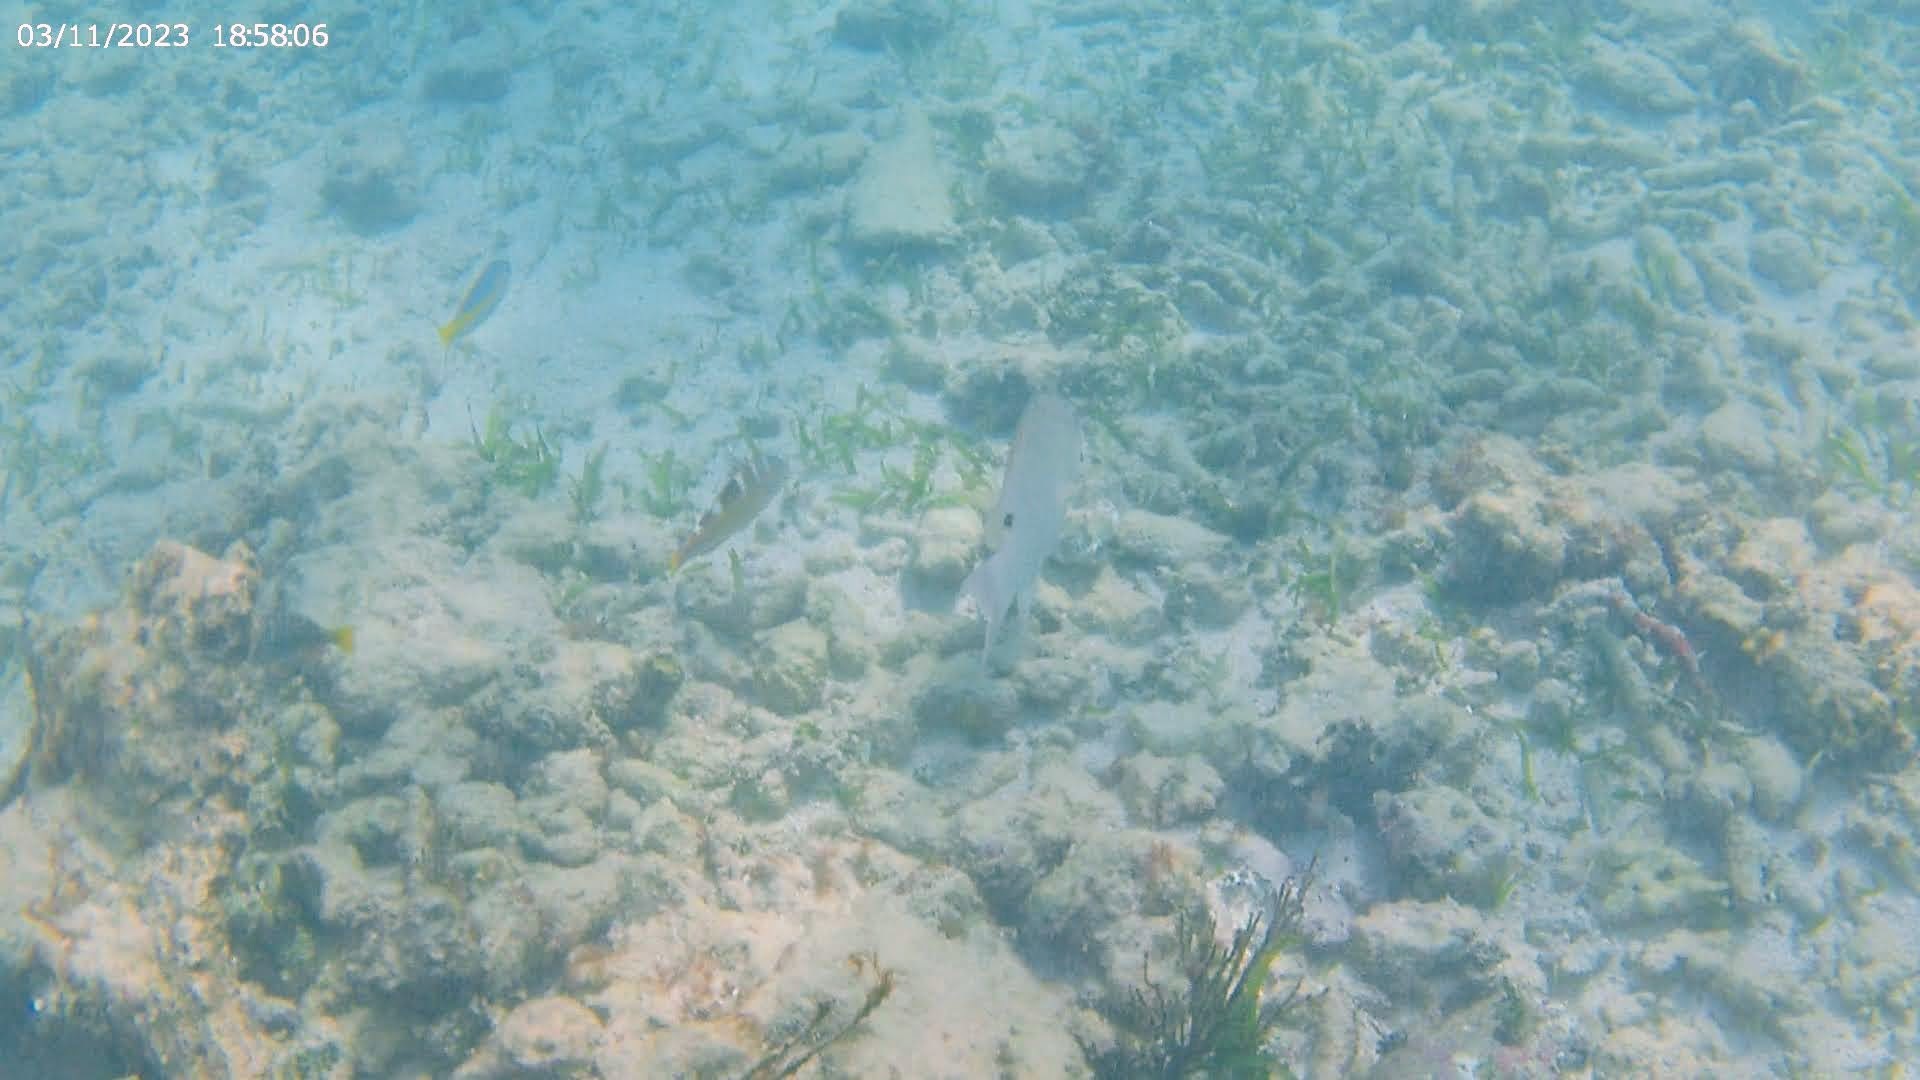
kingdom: Animalia
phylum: Chordata
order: Perciformes
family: Labridae
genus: Lachnolaimus
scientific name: Lachnolaimus maximus
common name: Hogfish
